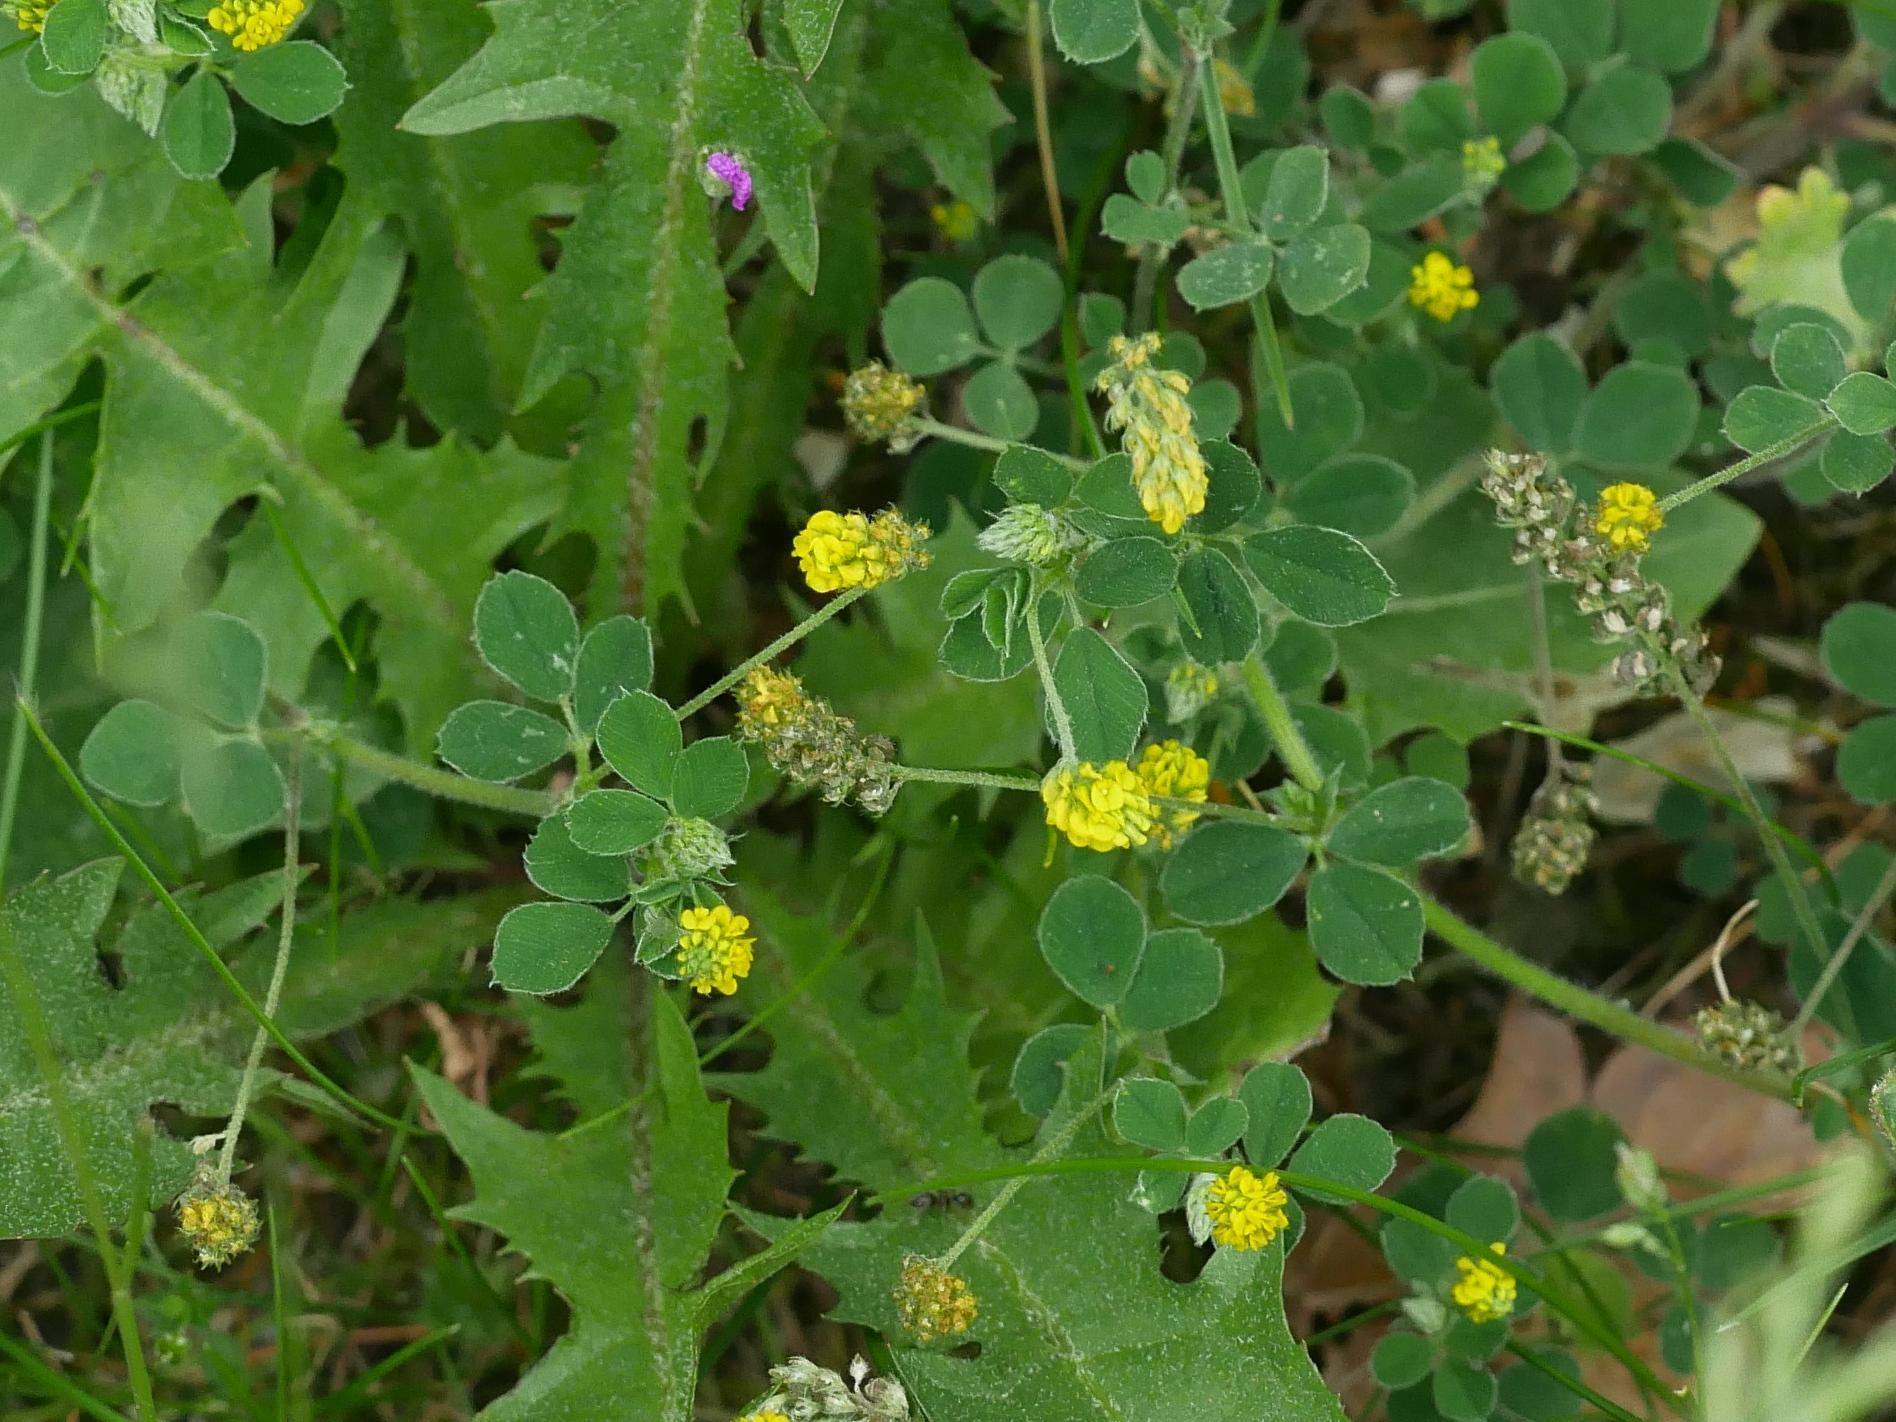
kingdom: Plantae
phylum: Tracheophyta
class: Magnoliopsida
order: Fabales
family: Fabaceae
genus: Medicago
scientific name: Medicago lupulina
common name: Black medick
